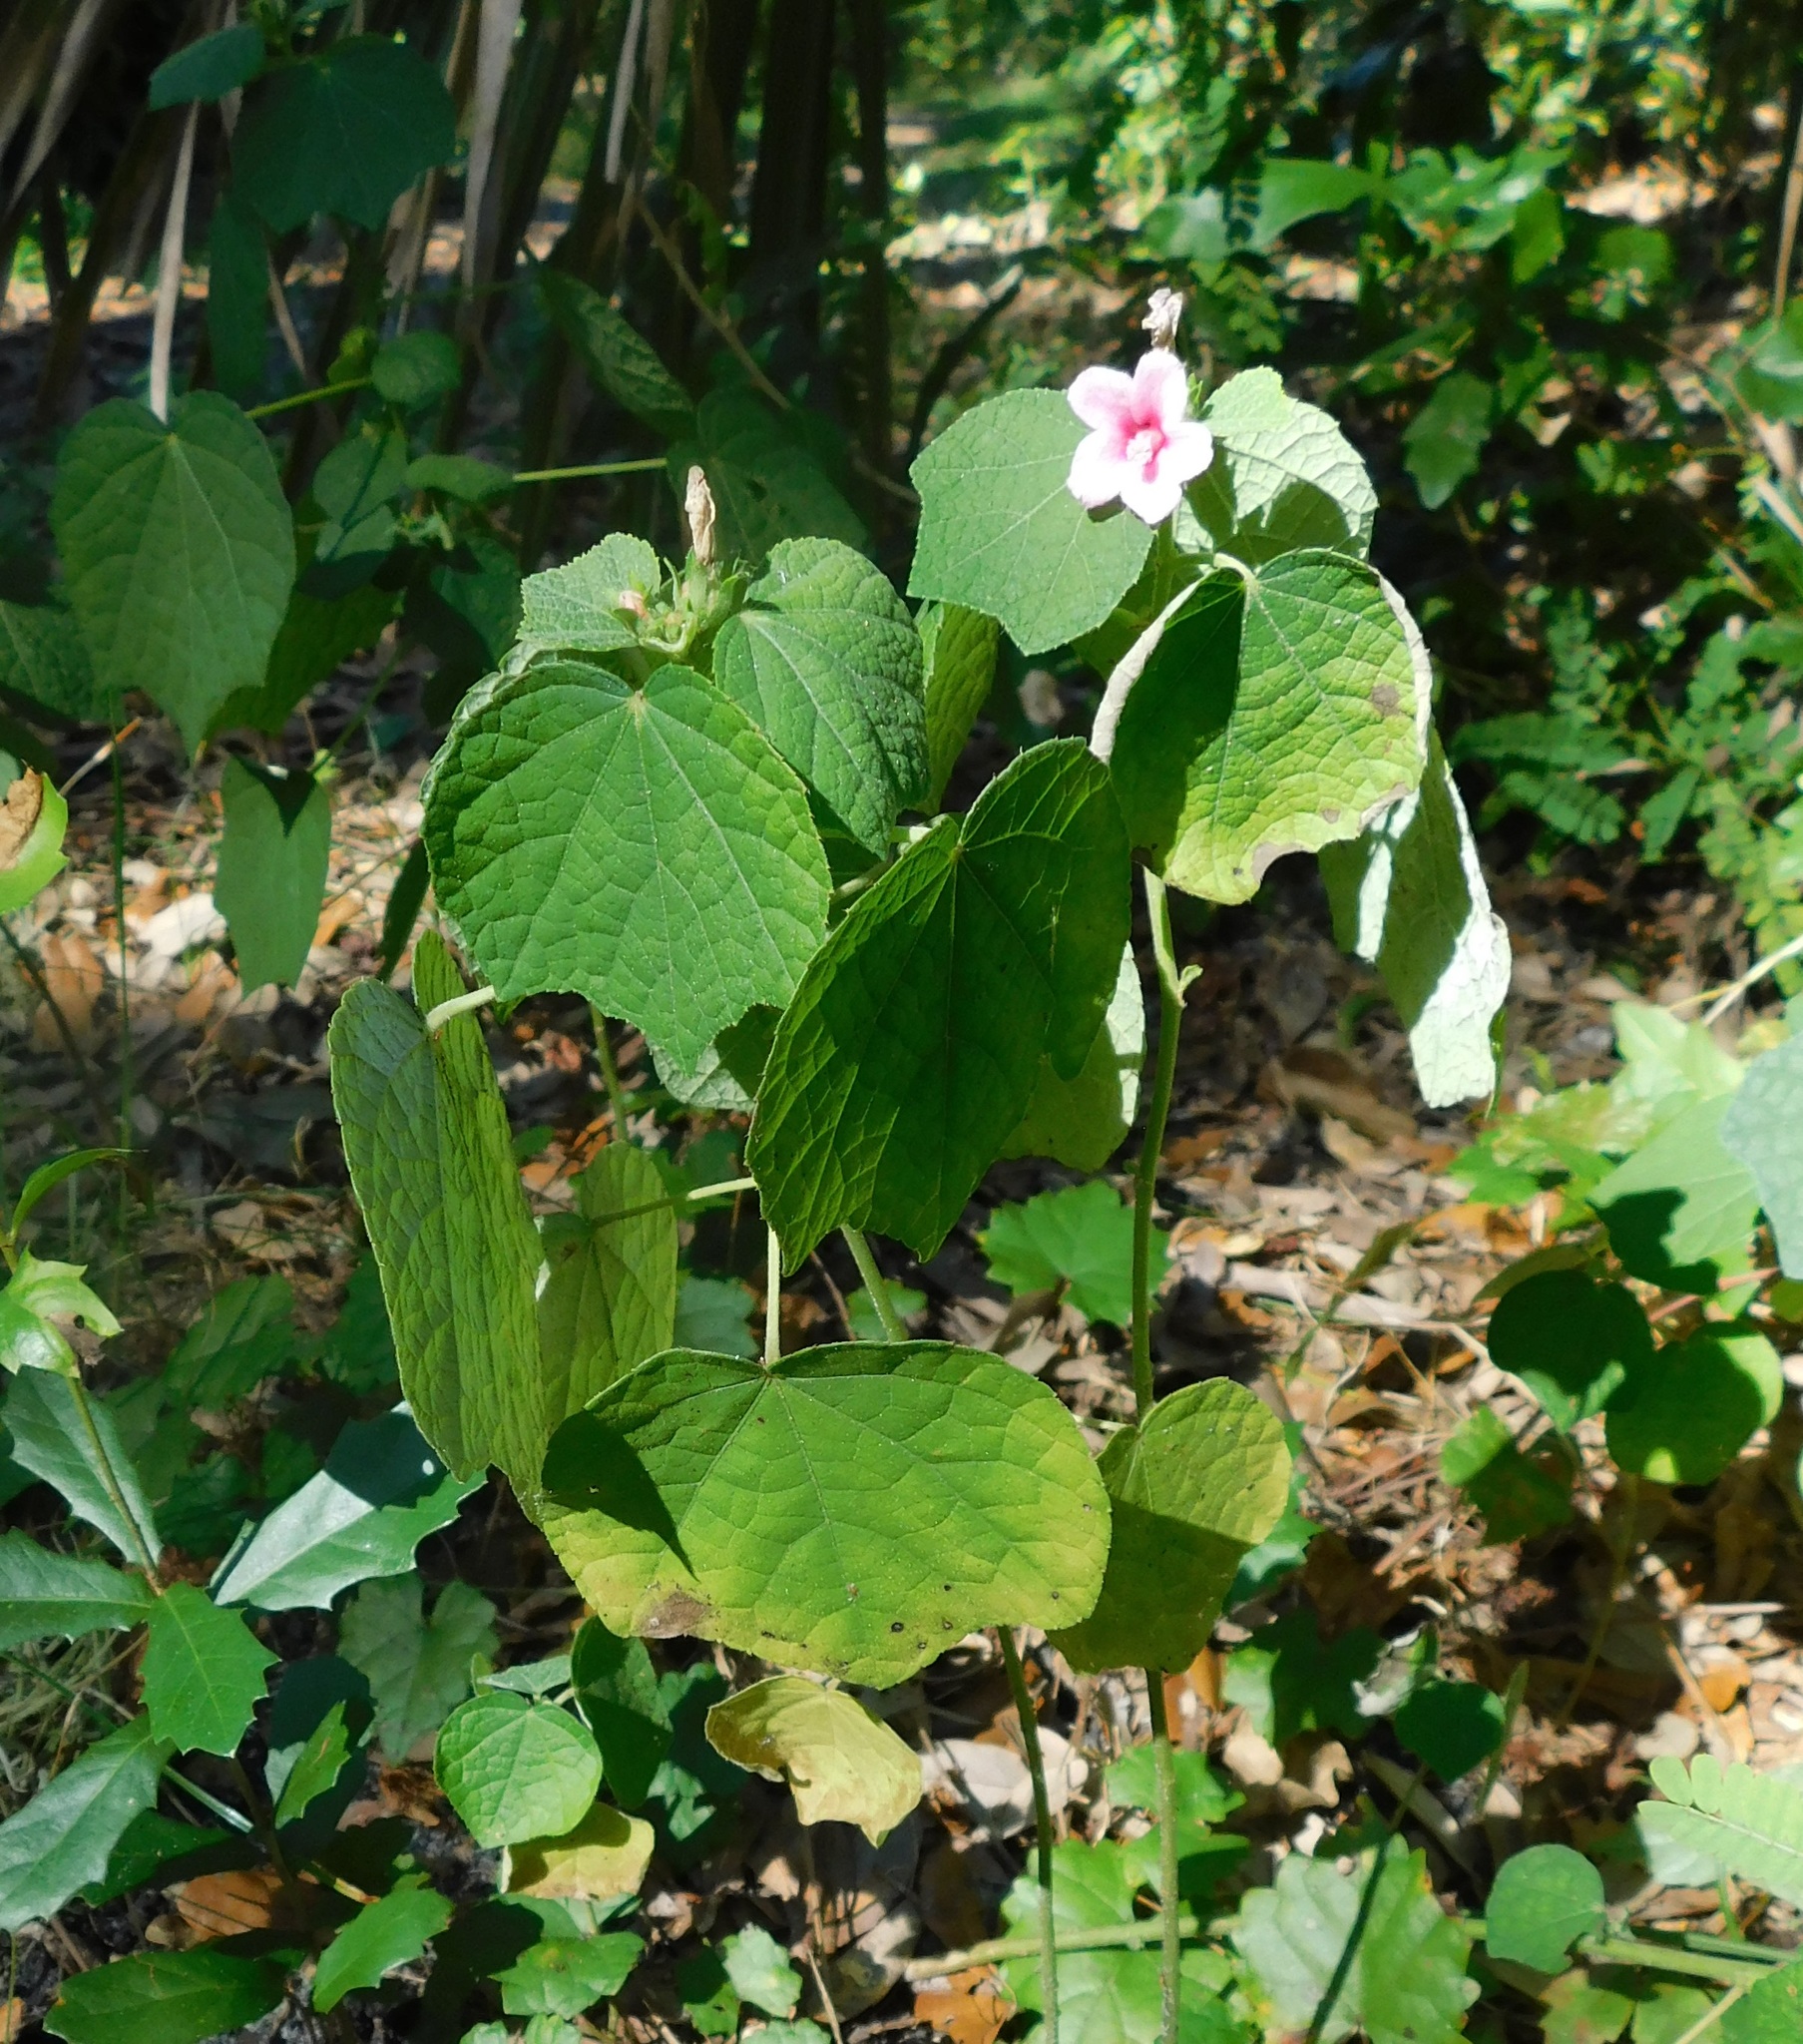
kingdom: Plantae
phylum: Tracheophyta
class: Magnoliopsida
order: Malvales
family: Malvaceae
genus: Urena
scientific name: Urena lobata
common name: Caesarweed
